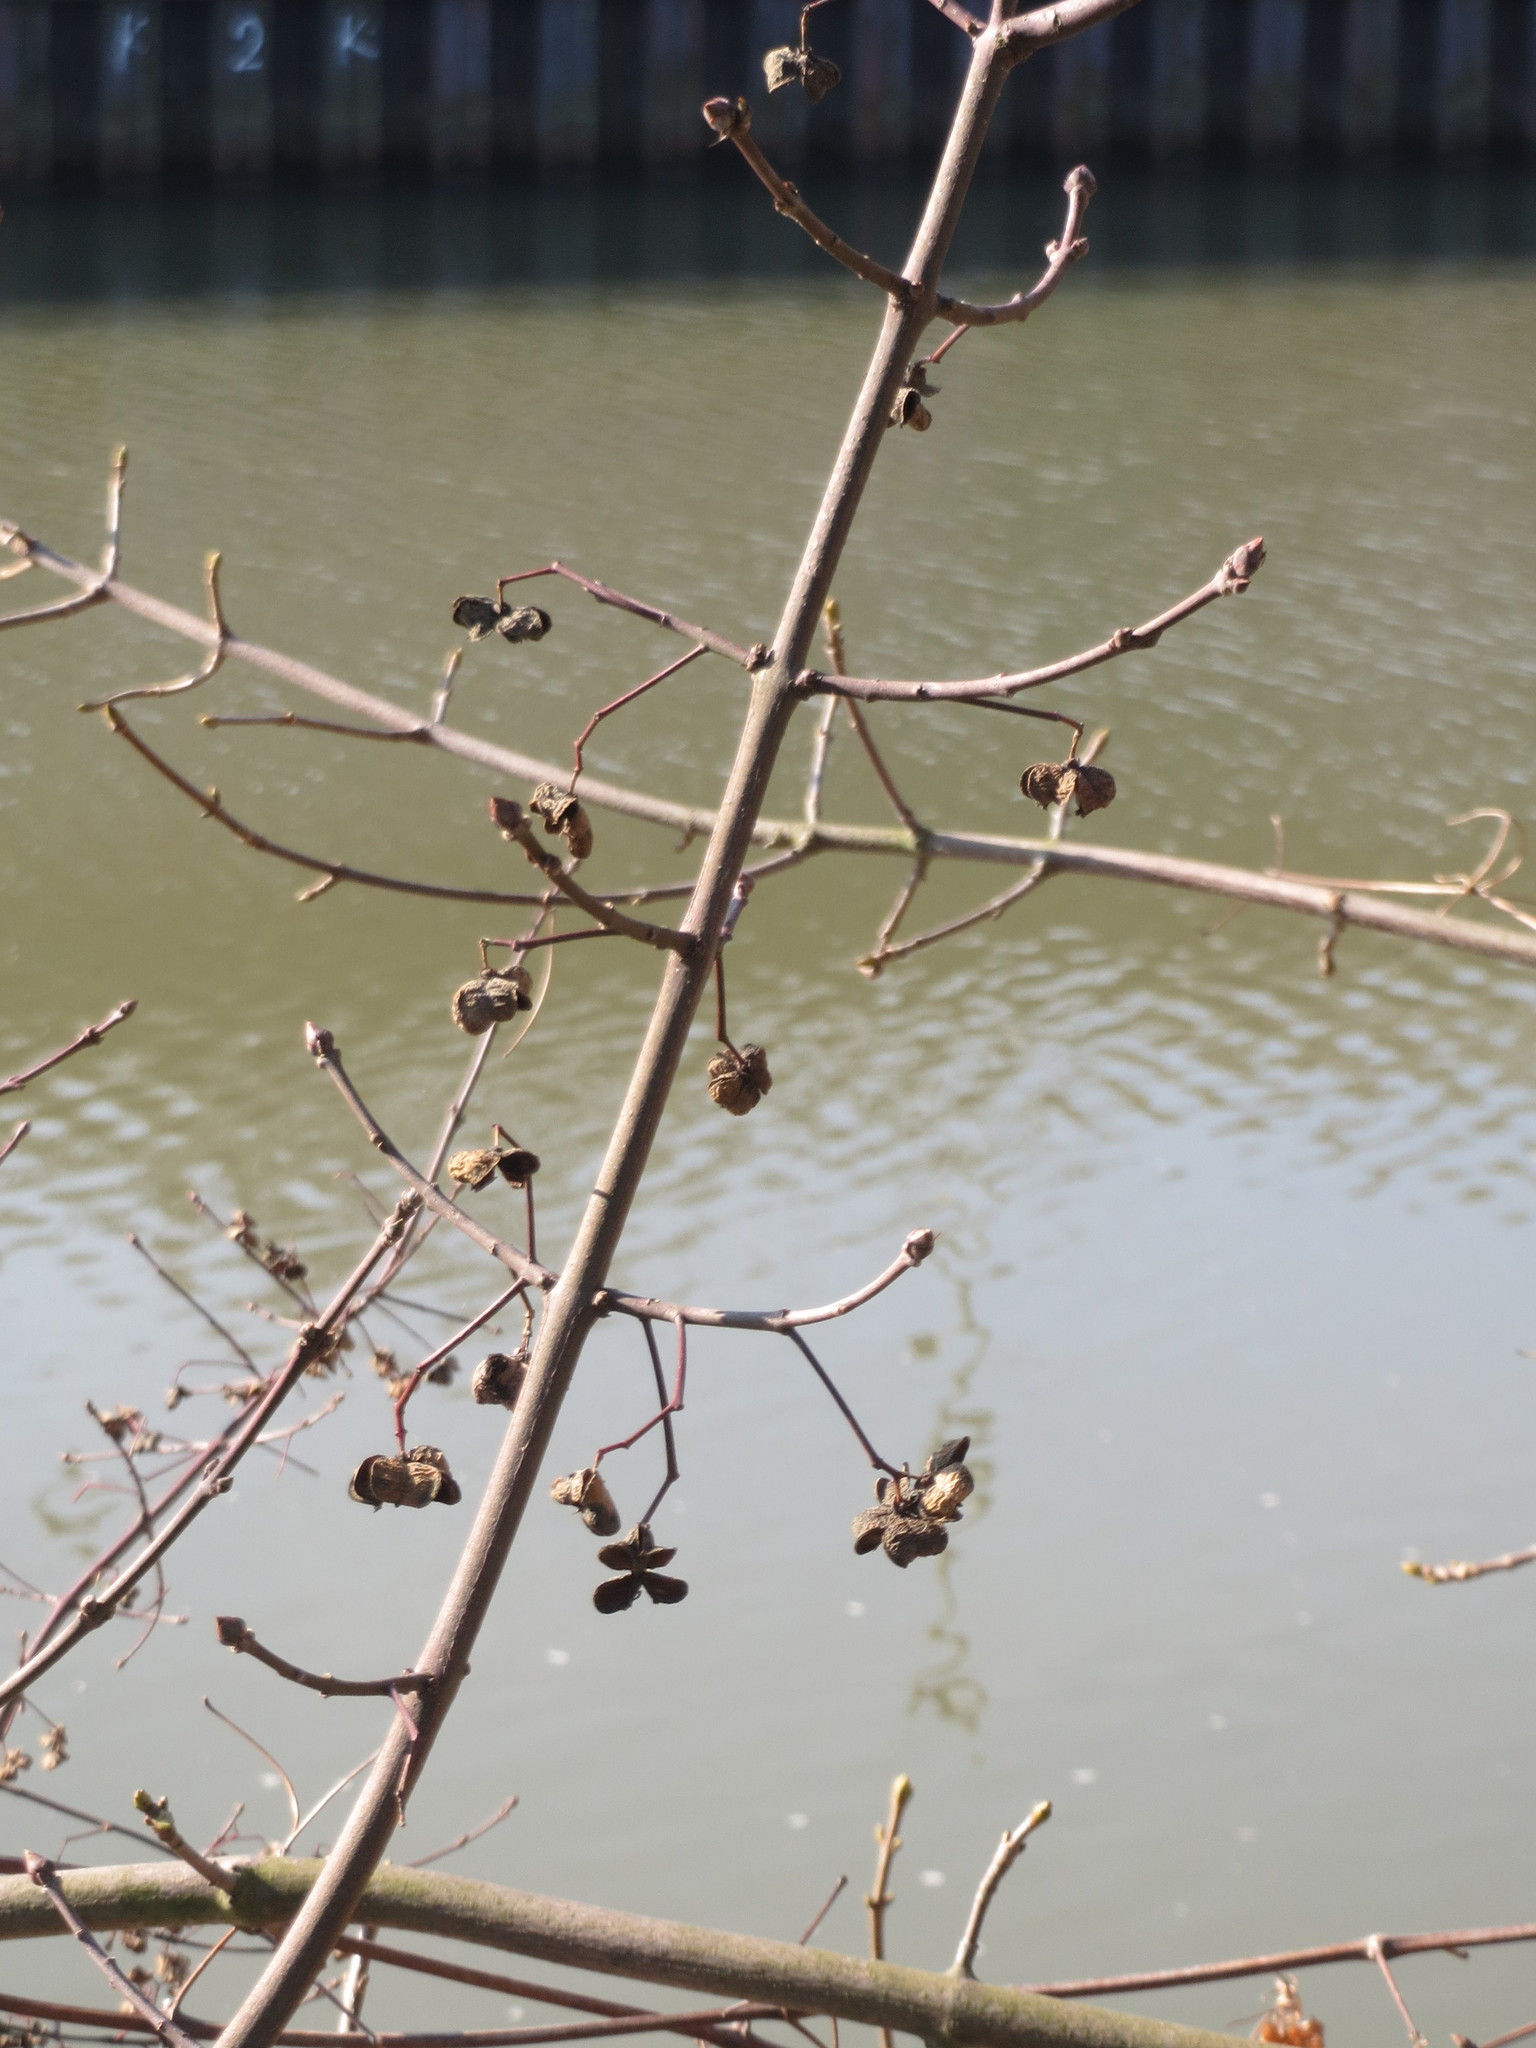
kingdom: Plantae
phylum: Tracheophyta
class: Magnoliopsida
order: Celastrales
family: Celastraceae
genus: Euonymus
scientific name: Euonymus europaeus
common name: Spindle
